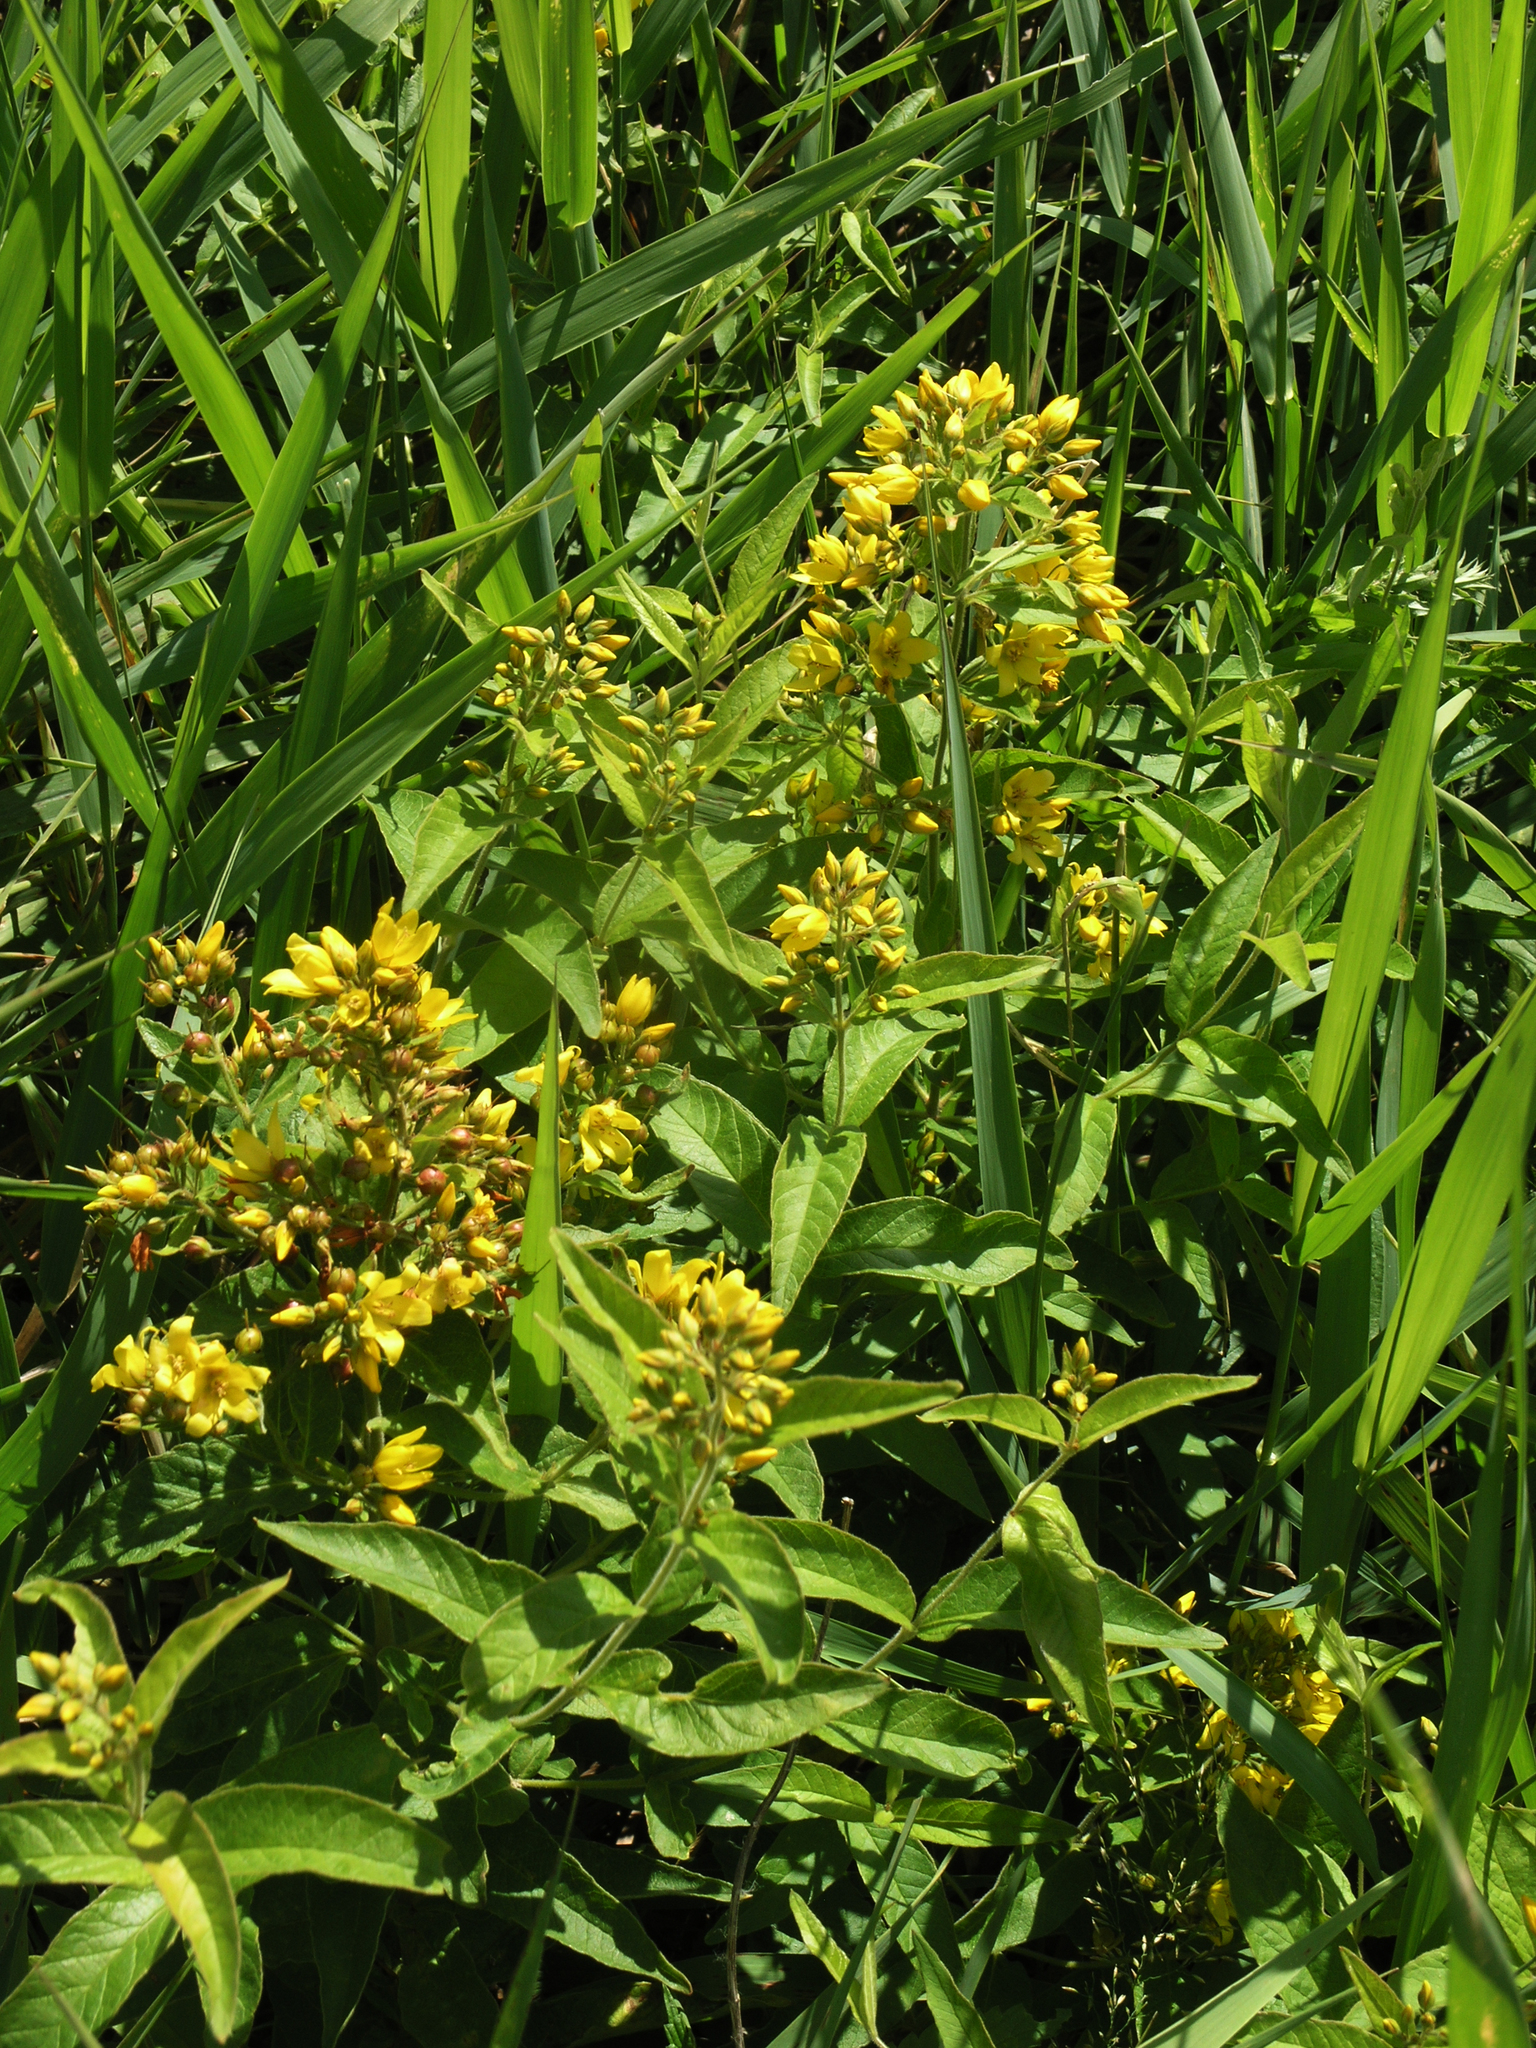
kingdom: Plantae
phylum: Tracheophyta
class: Magnoliopsida
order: Ericales
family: Primulaceae
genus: Lysimachia
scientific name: Lysimachia vulgaris
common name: Yellow loosestrife
